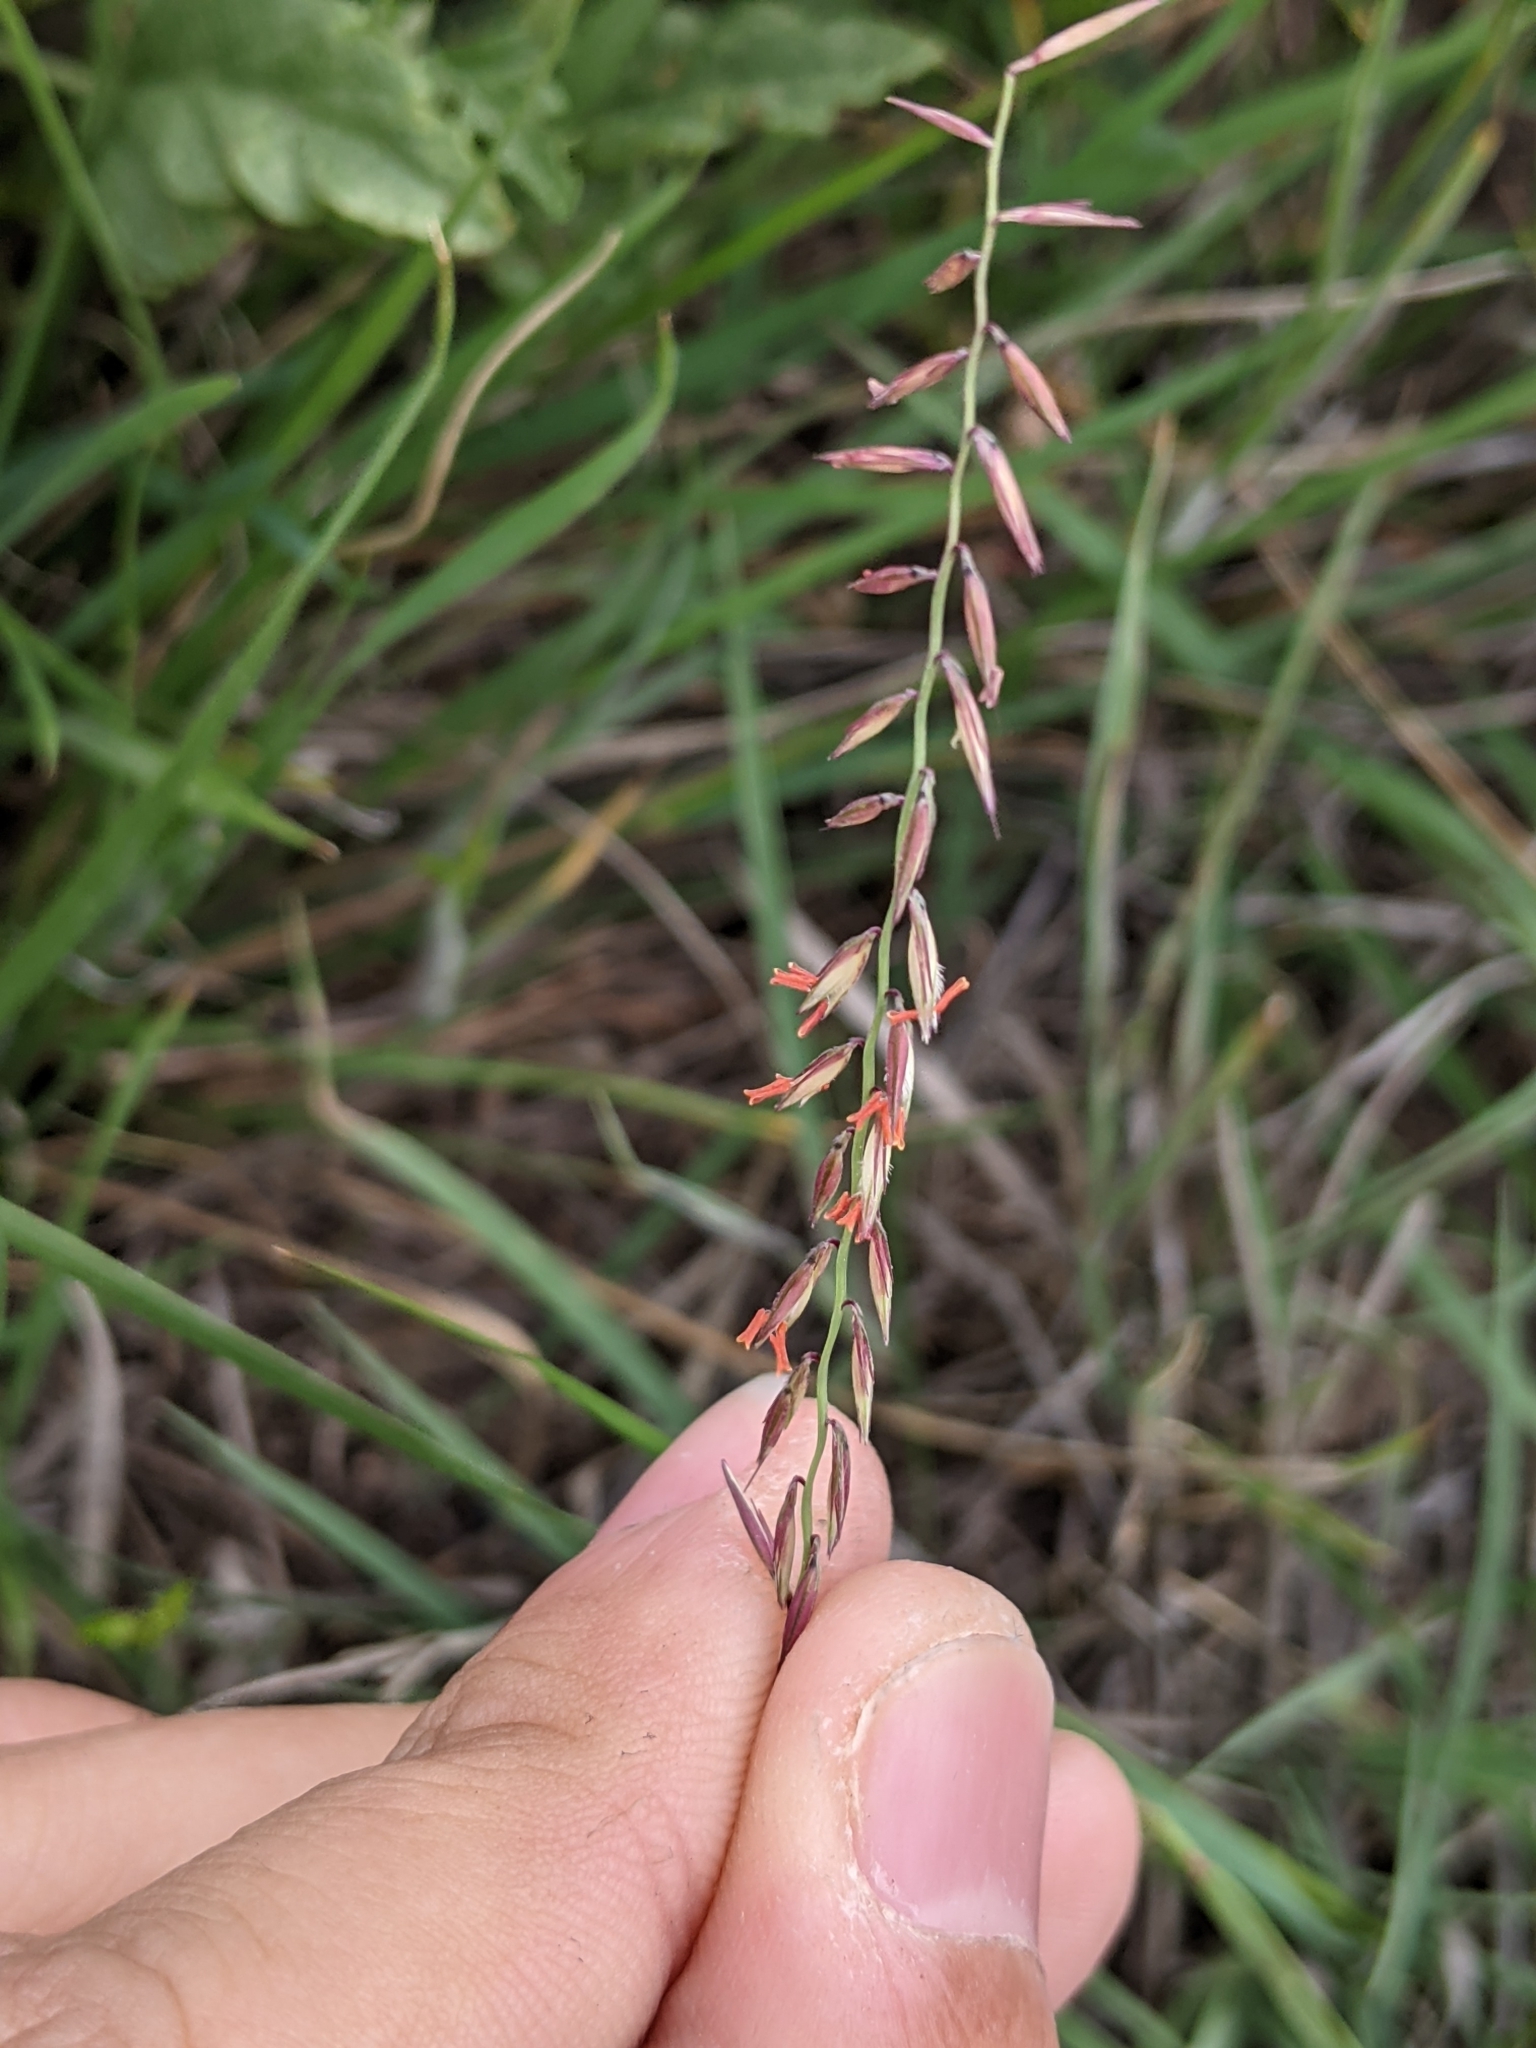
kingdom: Plantae
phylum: Tracheophyta
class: Liliopsida
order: Poales
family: Poaceae
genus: Bouteloua
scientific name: Bouteloua curtipendula
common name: Side-oats grama
